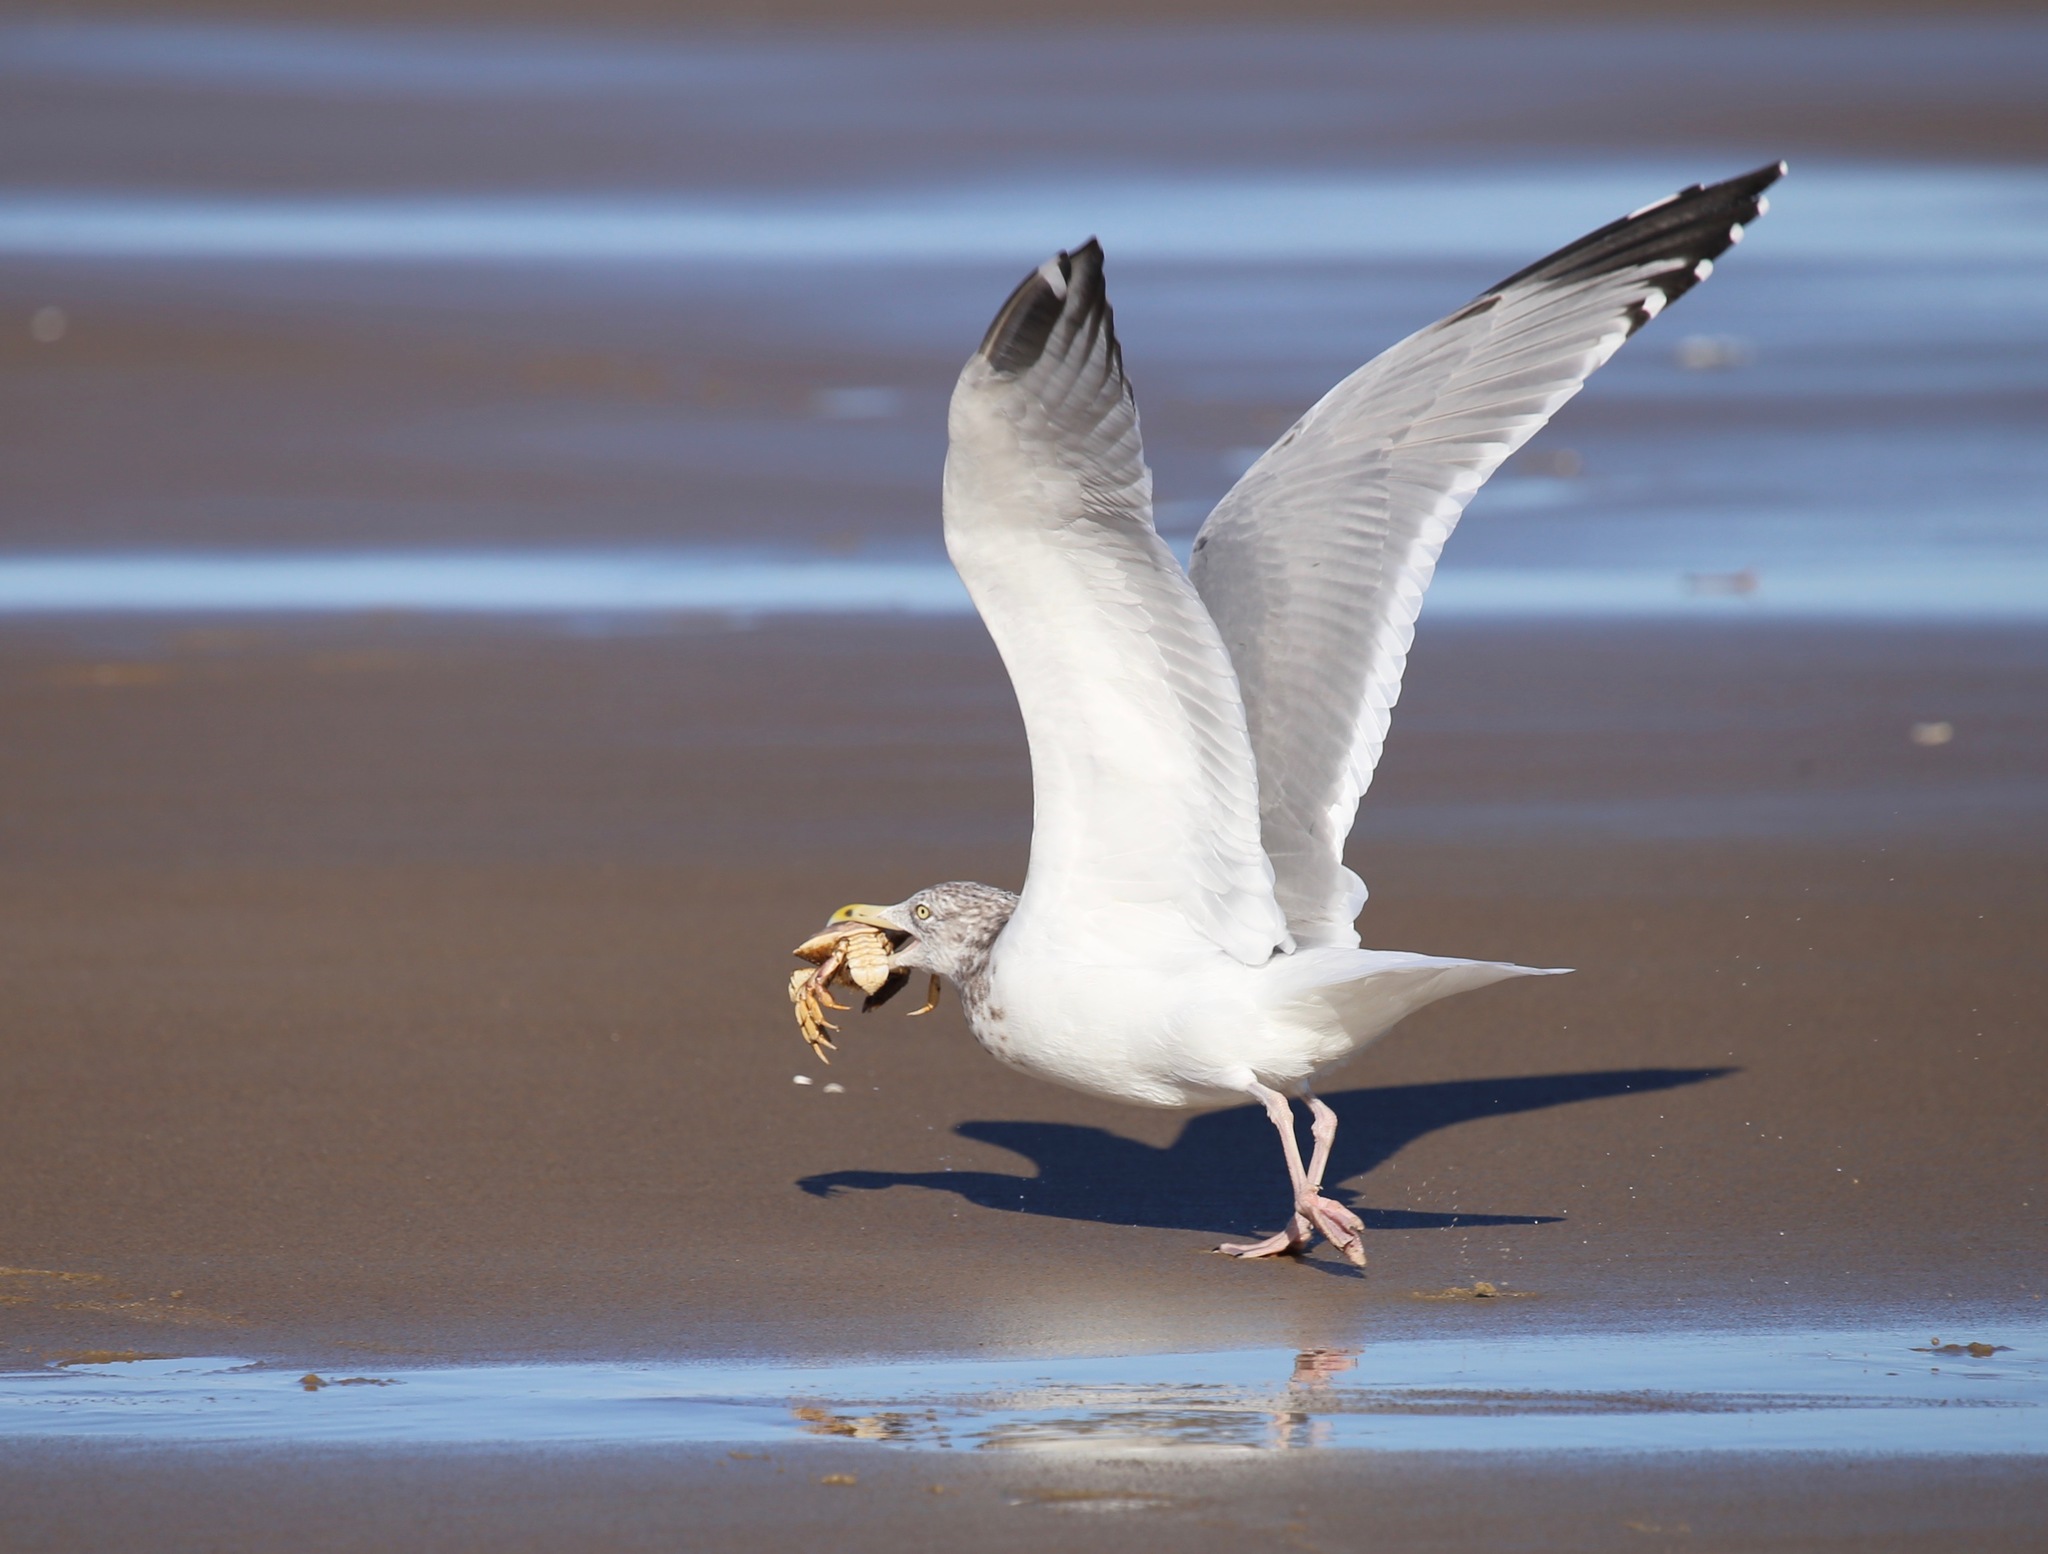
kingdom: Animalia
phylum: Chordata
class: Aves
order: Charadriiformes
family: Laridae
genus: Larus
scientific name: Larus argentatus
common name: Herring gull
